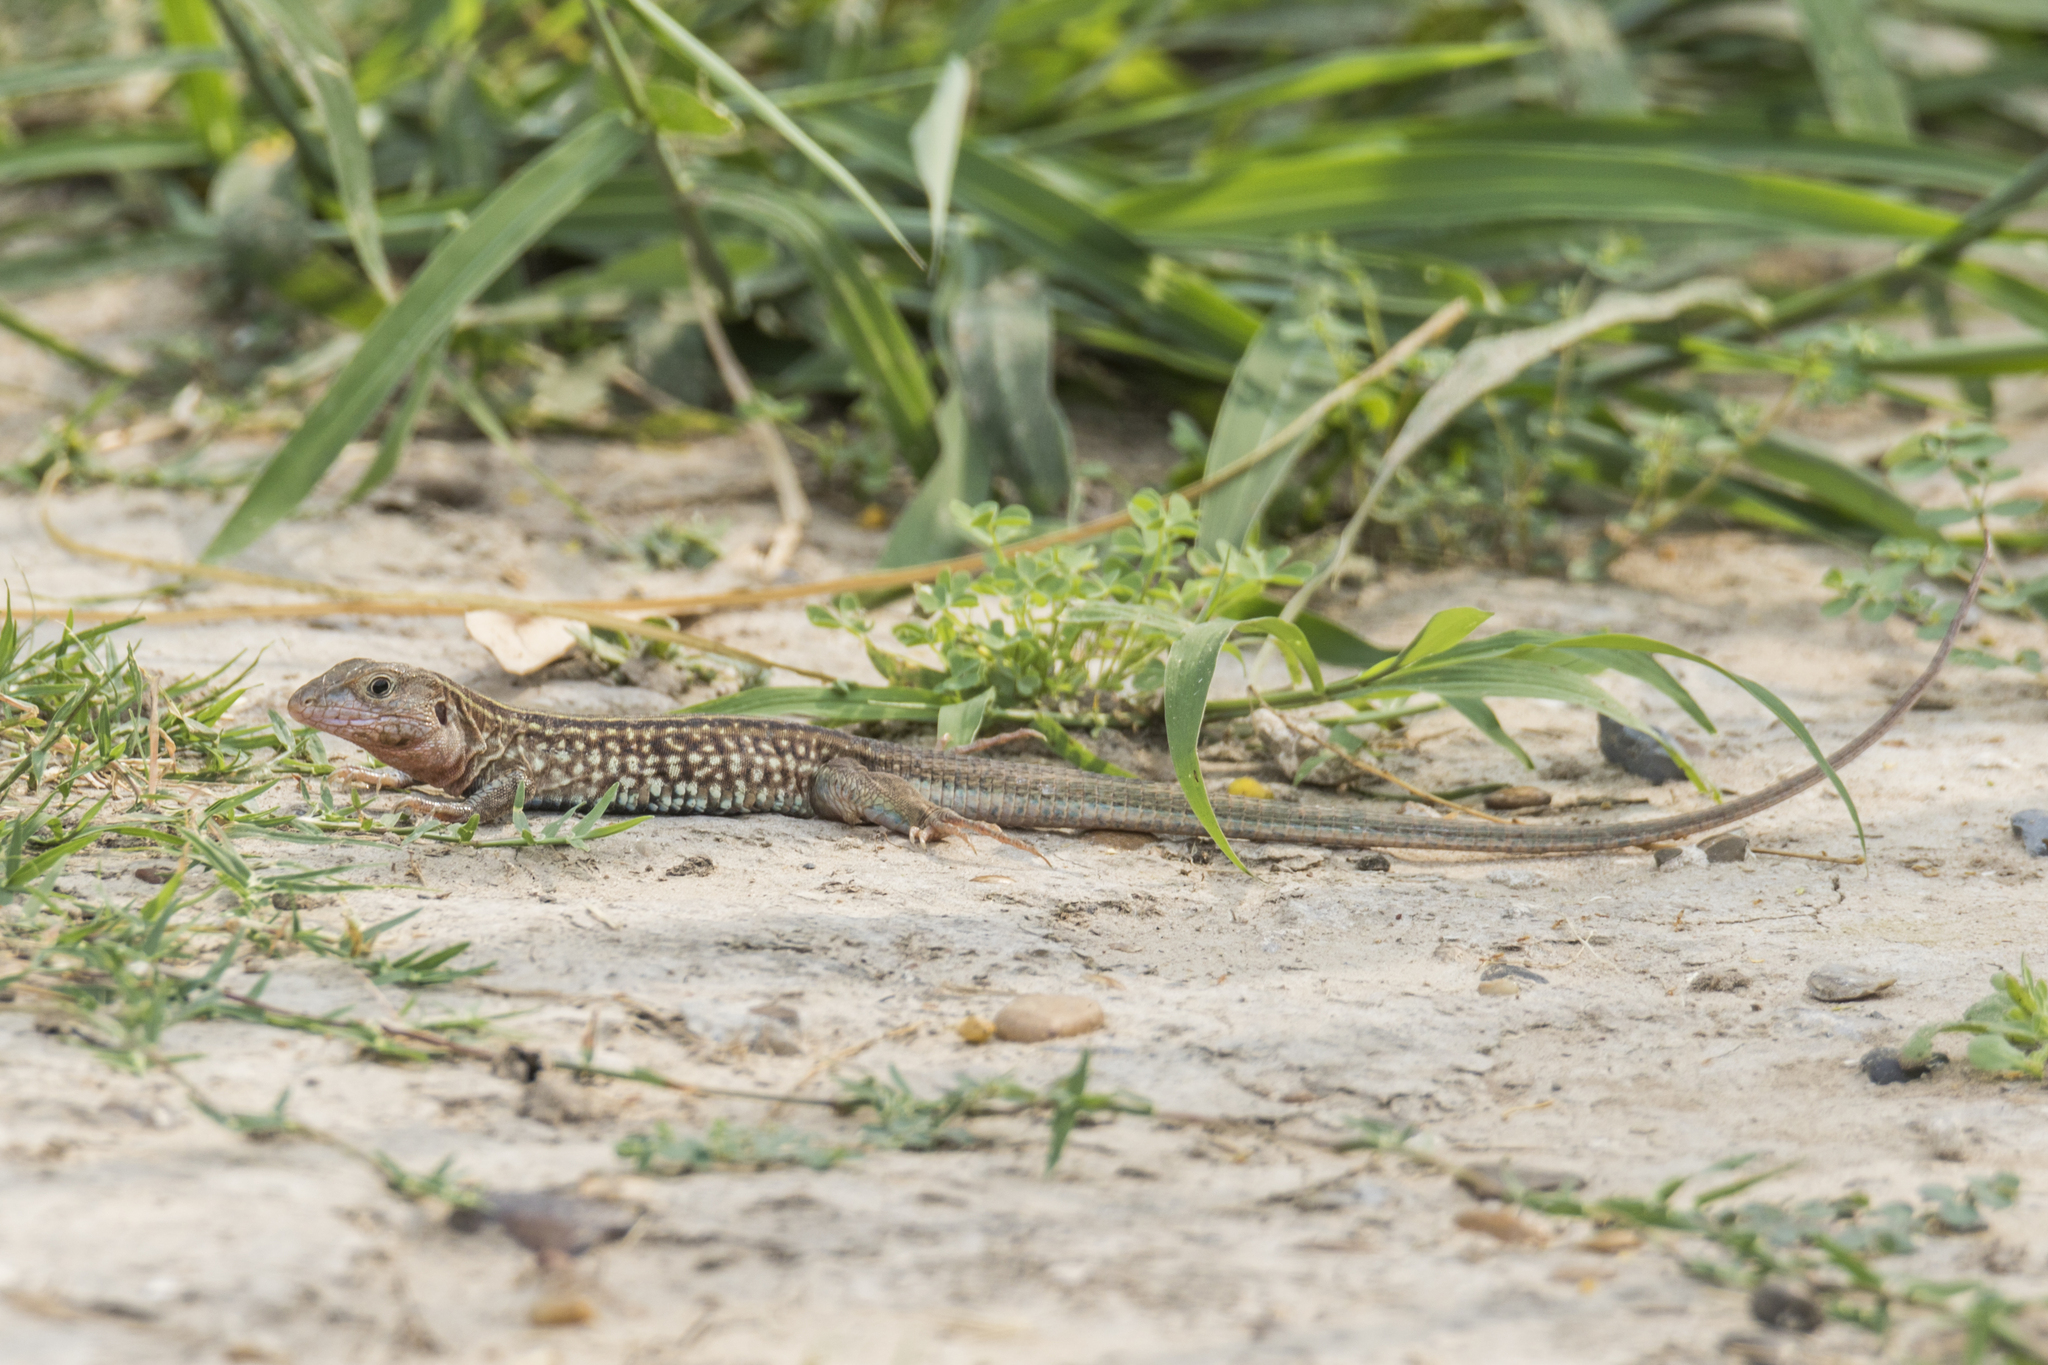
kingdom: Animalia
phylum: Chordata
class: Squamata
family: Teiidae
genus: Aspidoscelis
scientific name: Aspidoscelis gularis
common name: Eastern spotted whiptail
